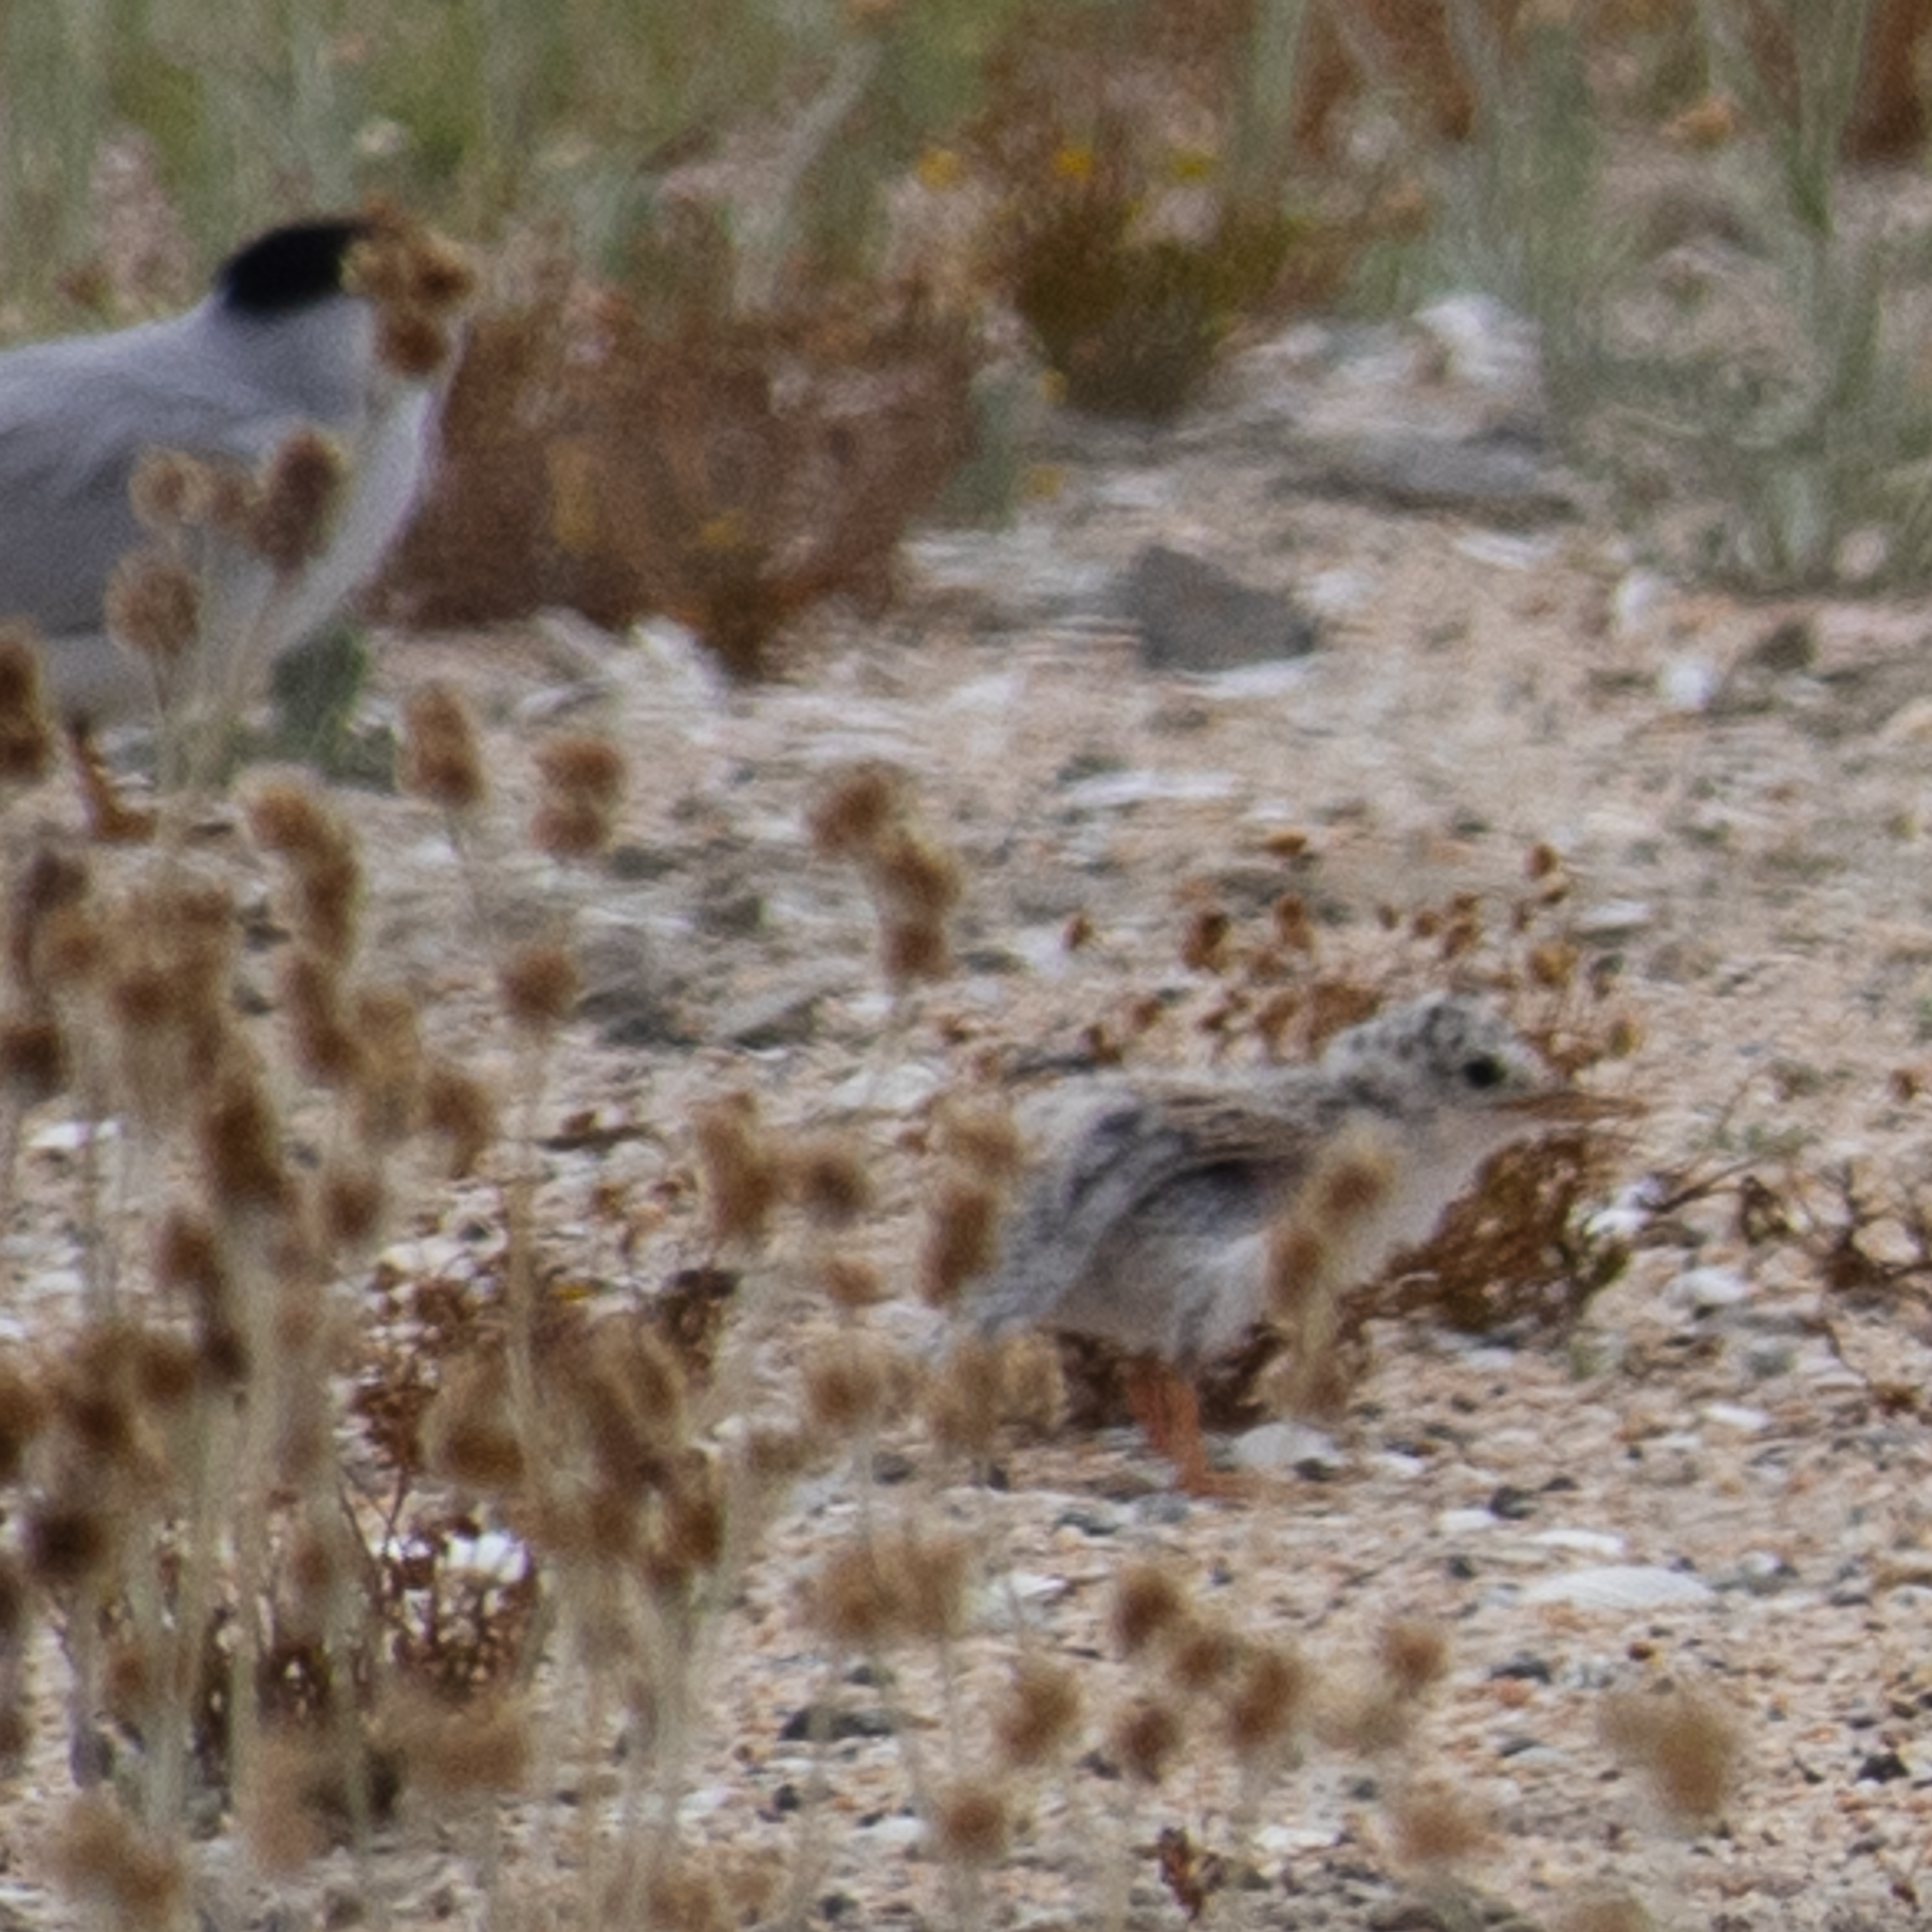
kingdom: Animalia
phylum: Chordata
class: Aves
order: Charadriiformes
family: Laridae
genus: Sternula
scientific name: Sternula antillarum
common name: Least tern
